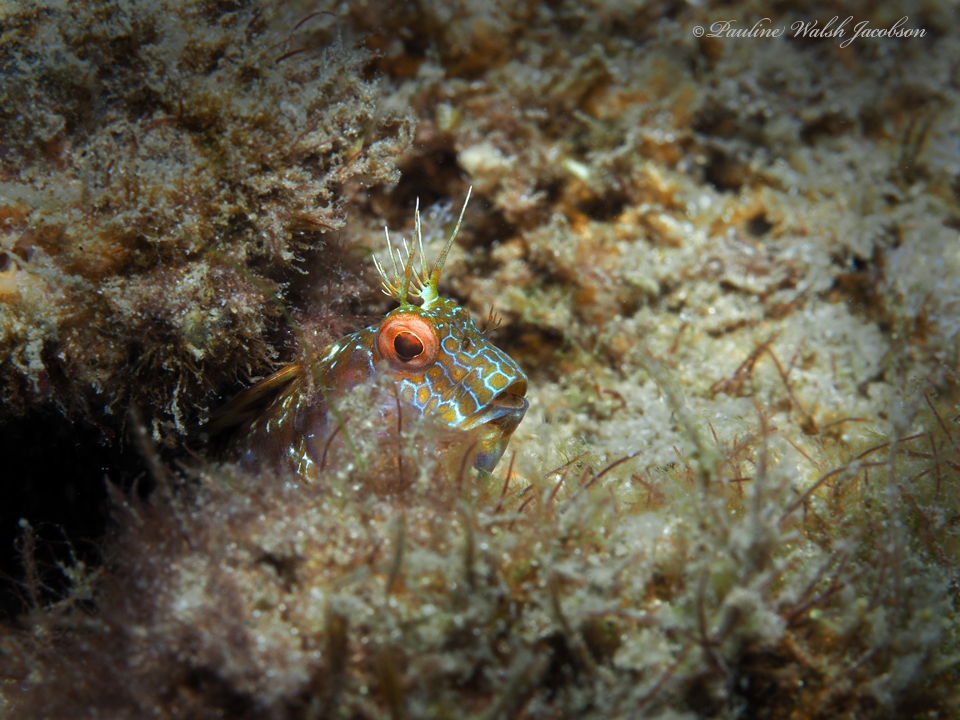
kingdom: Animalia
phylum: Chordata
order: Perciformes
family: Blenniidae
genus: Parablennius
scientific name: Parablennius marmoreus
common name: Seaweed blenny
